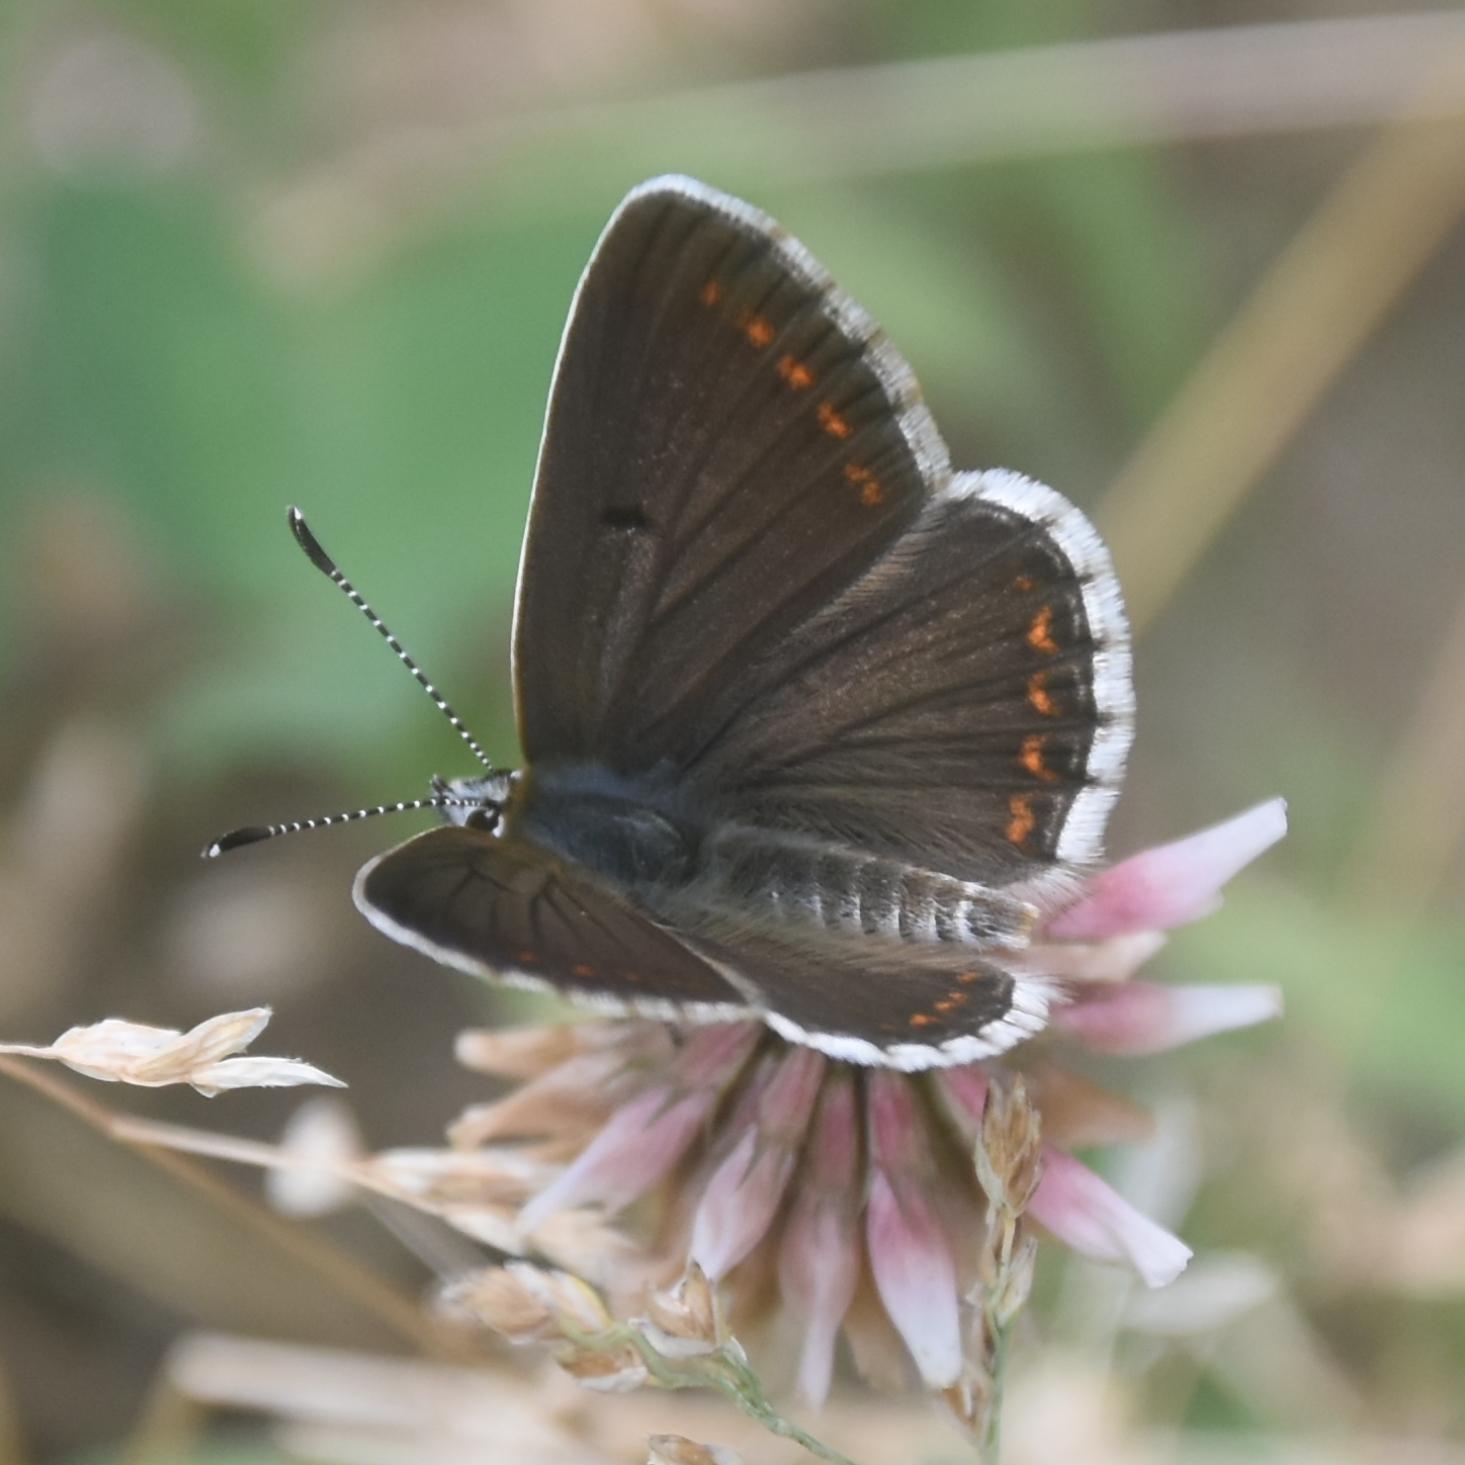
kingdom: Animalia
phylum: Arthropoda
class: Insecta
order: Lepidoptera
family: Lycaenidae
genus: Aricia
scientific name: Aricia agestis
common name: Brown argus
